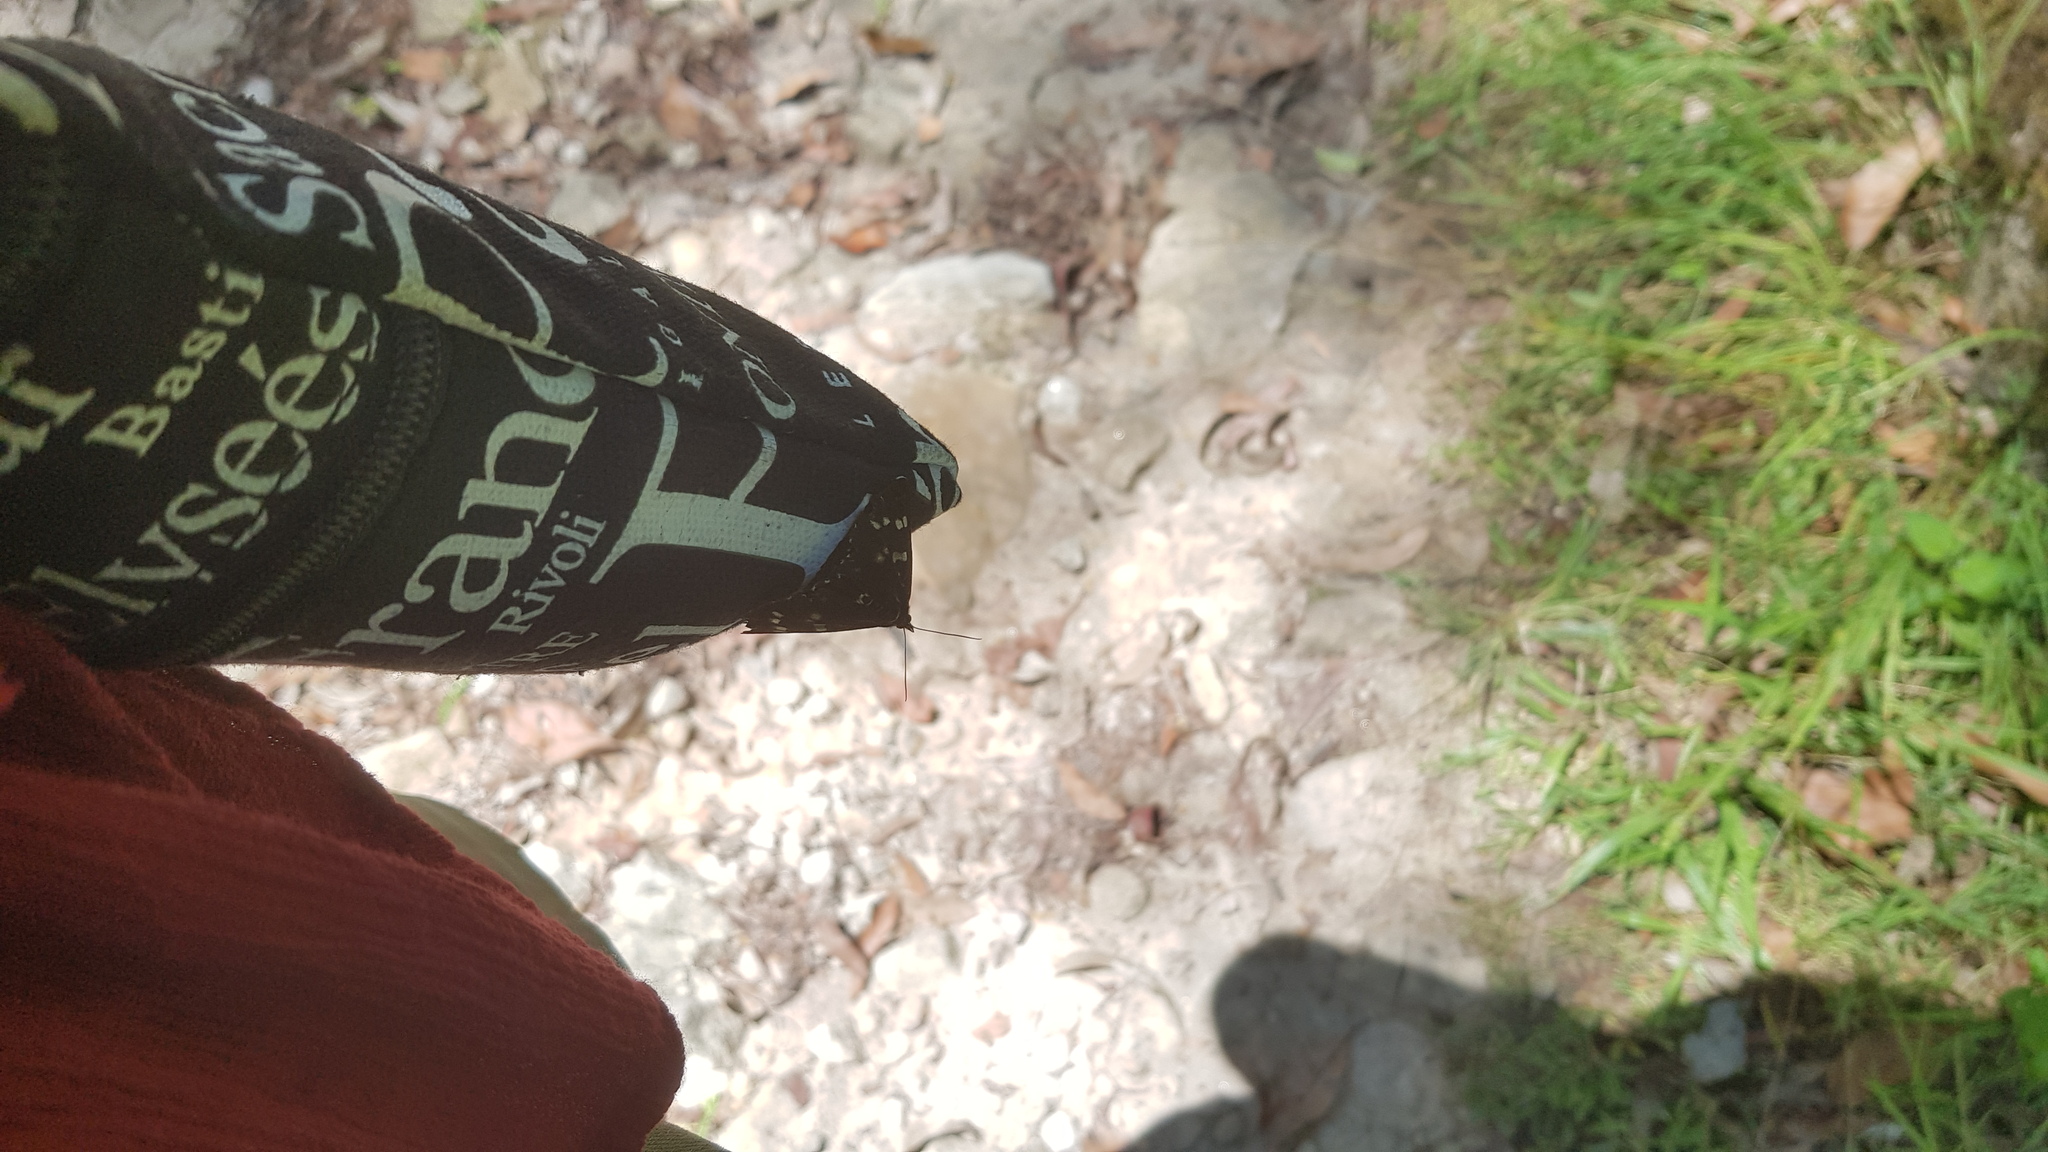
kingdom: Animalia
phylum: Arthropoda
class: Insecta
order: Lepidoptera
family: Noctuidae
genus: Cruria
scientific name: Cruria synopla
